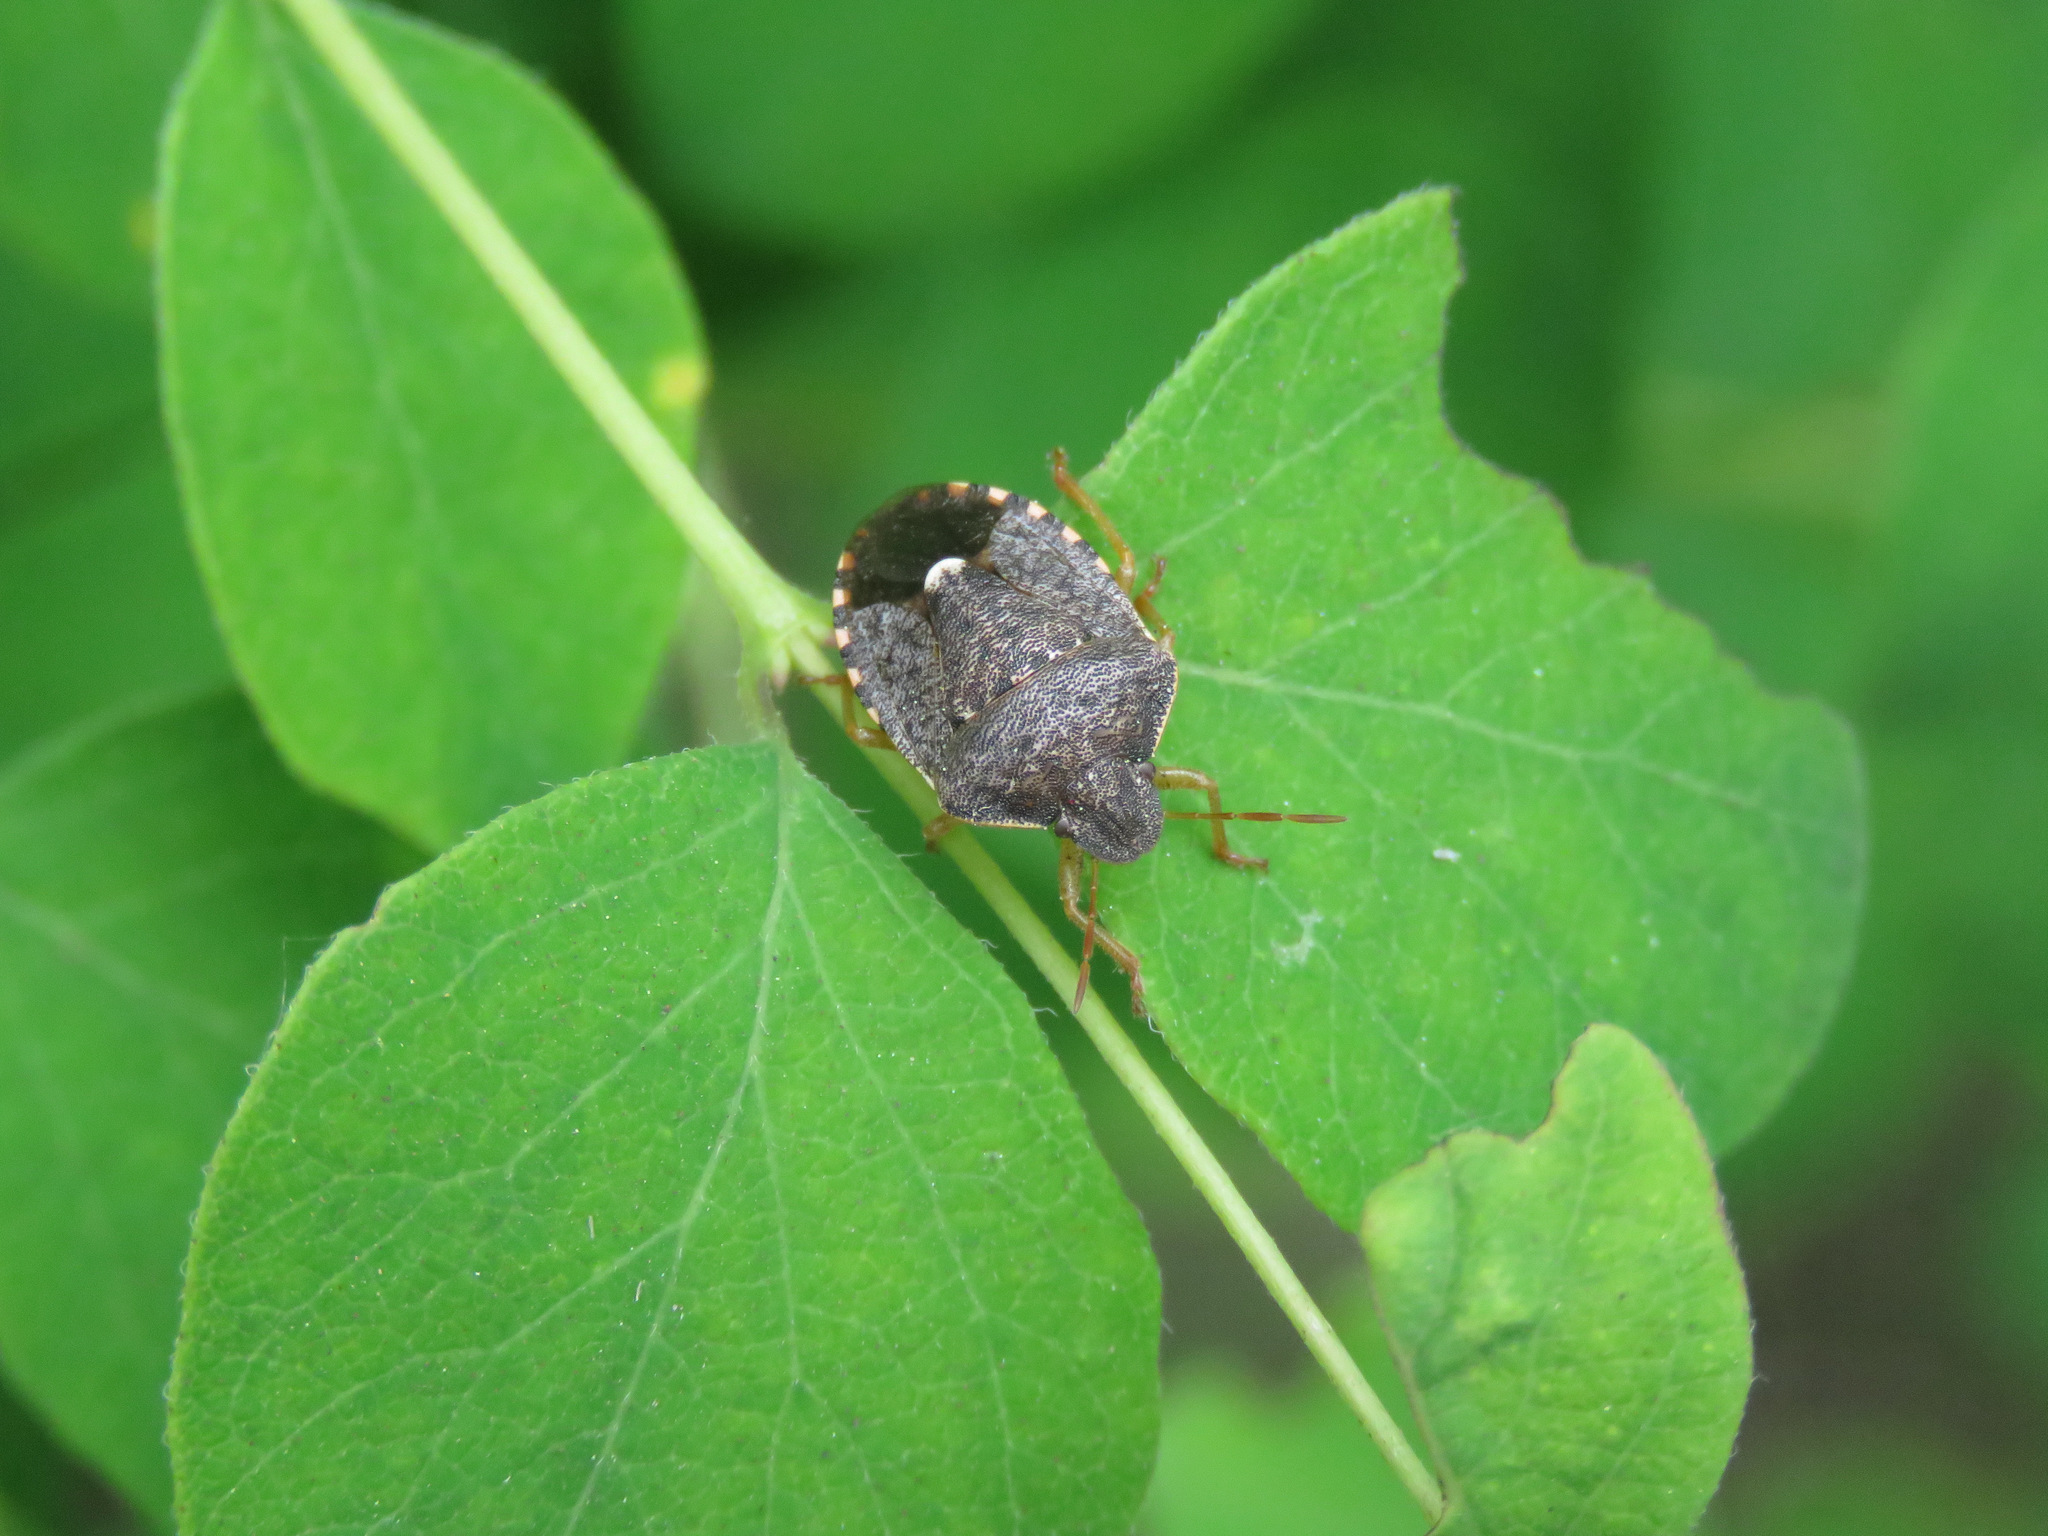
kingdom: Animalia
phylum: Arthropoda
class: Insecta
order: Hemiptera
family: Pentatomidae
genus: Holcostethus
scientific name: Holcostethus abbreviatus
